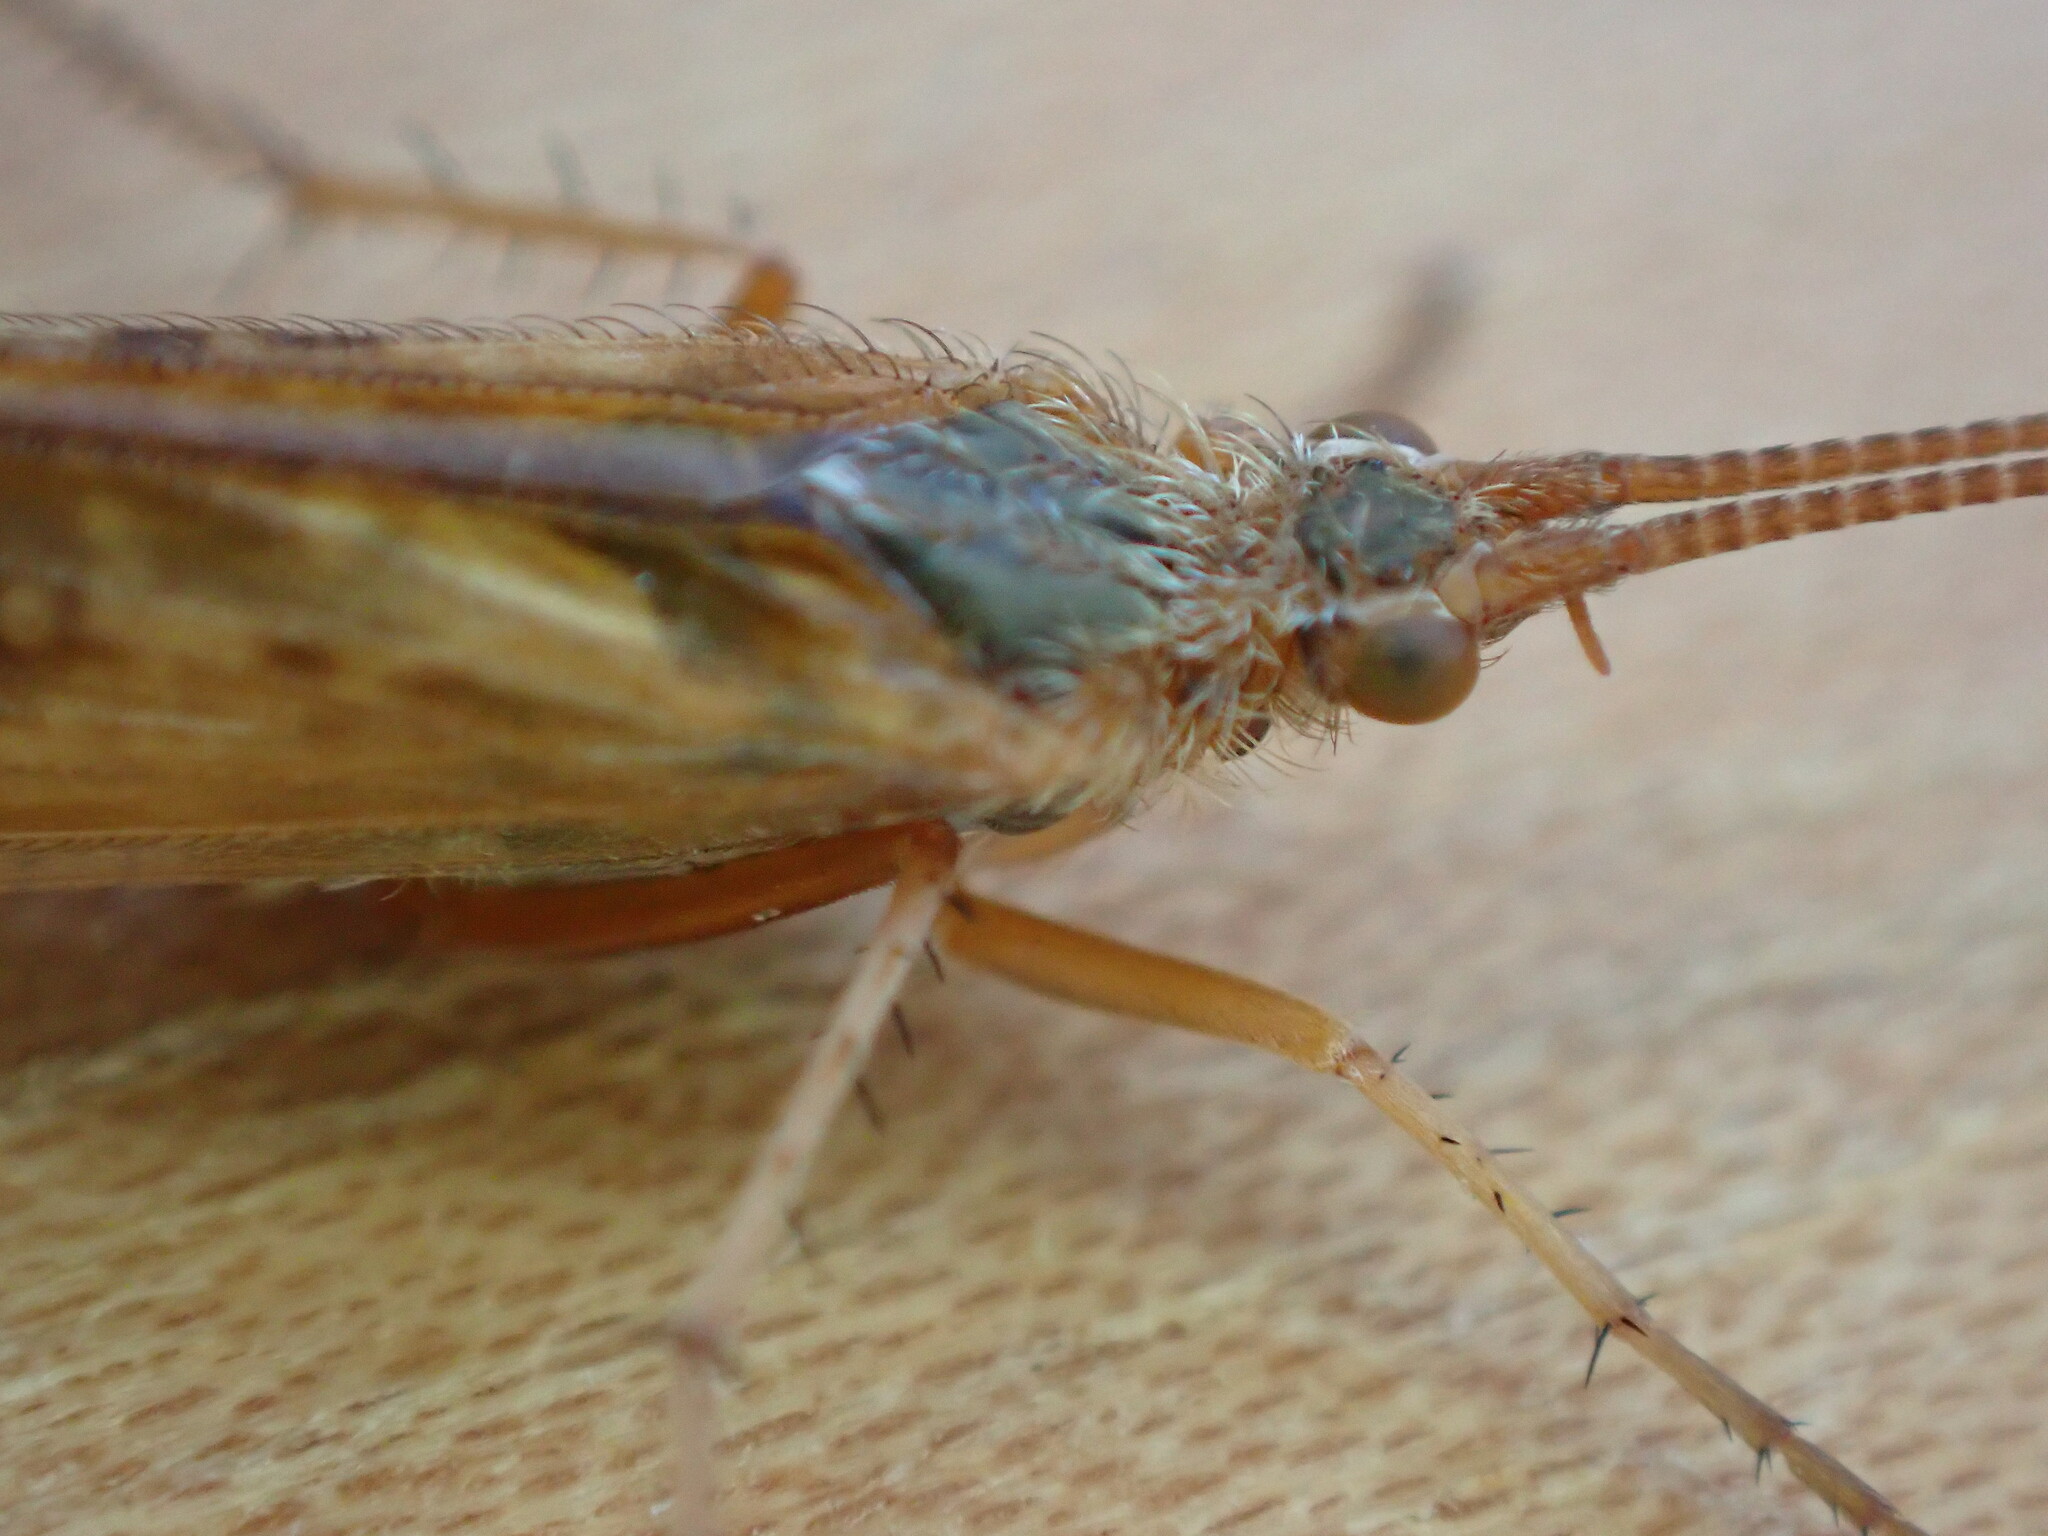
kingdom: Animalia
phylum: Arthropoda
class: Insecta
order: Trichoptera
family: Limnephilidae
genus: Limnephilus
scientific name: Limnephilus lunatus
